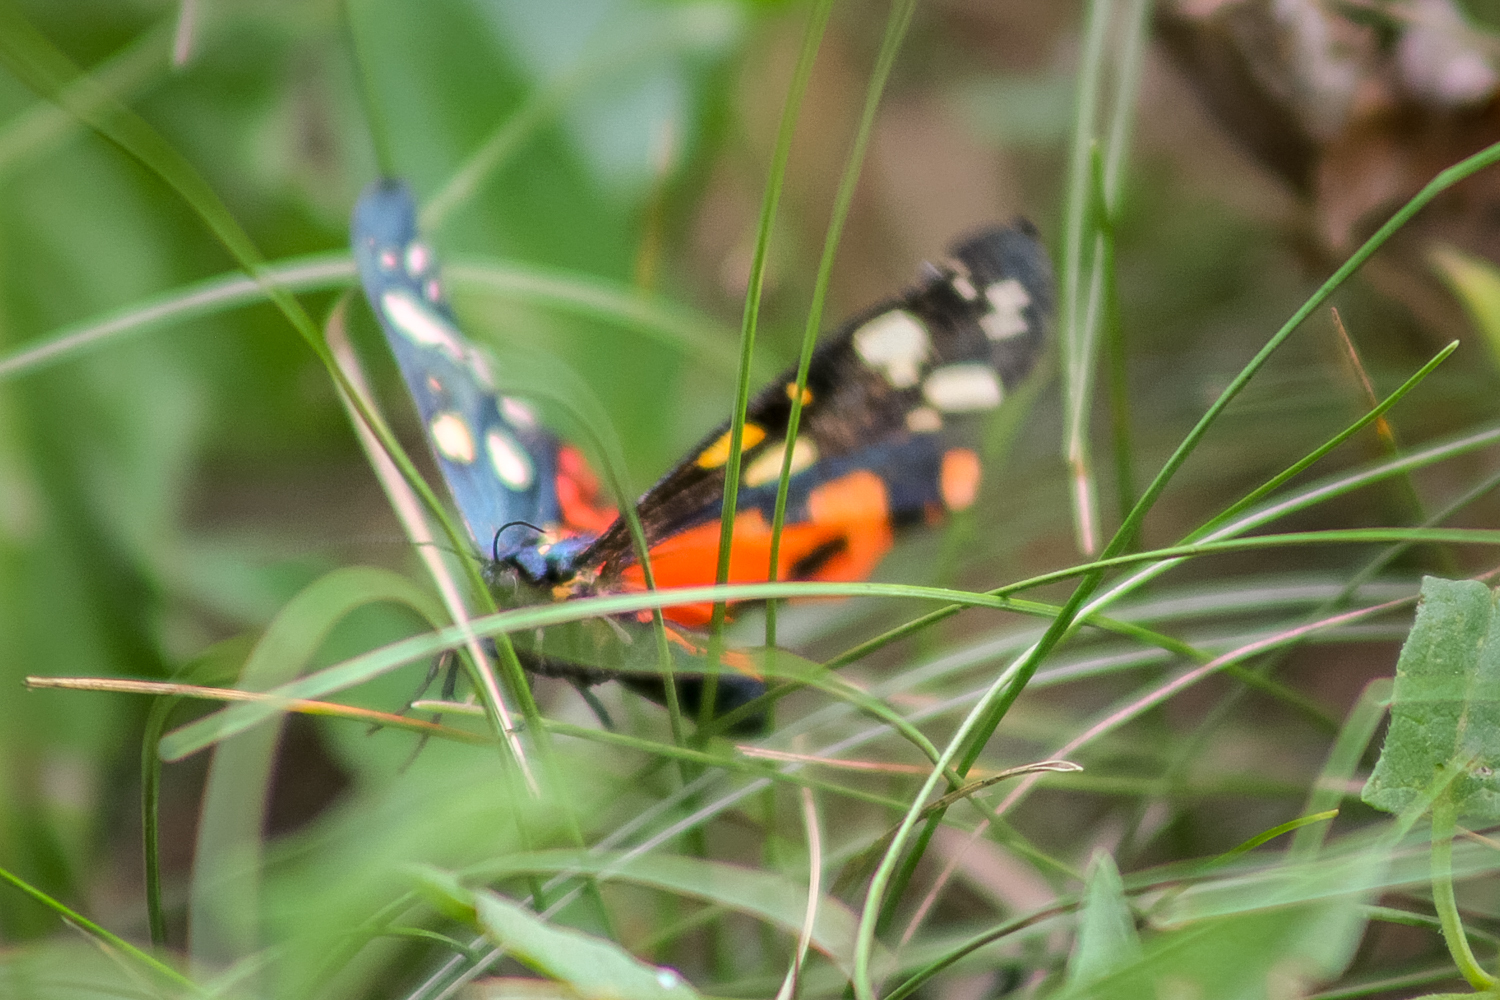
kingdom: Animalia
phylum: Arthropoda
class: Insecta
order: Lepidoptera
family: Erebidae
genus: Callimorpha
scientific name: Callimorpha dominula
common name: Scarlet tiger
